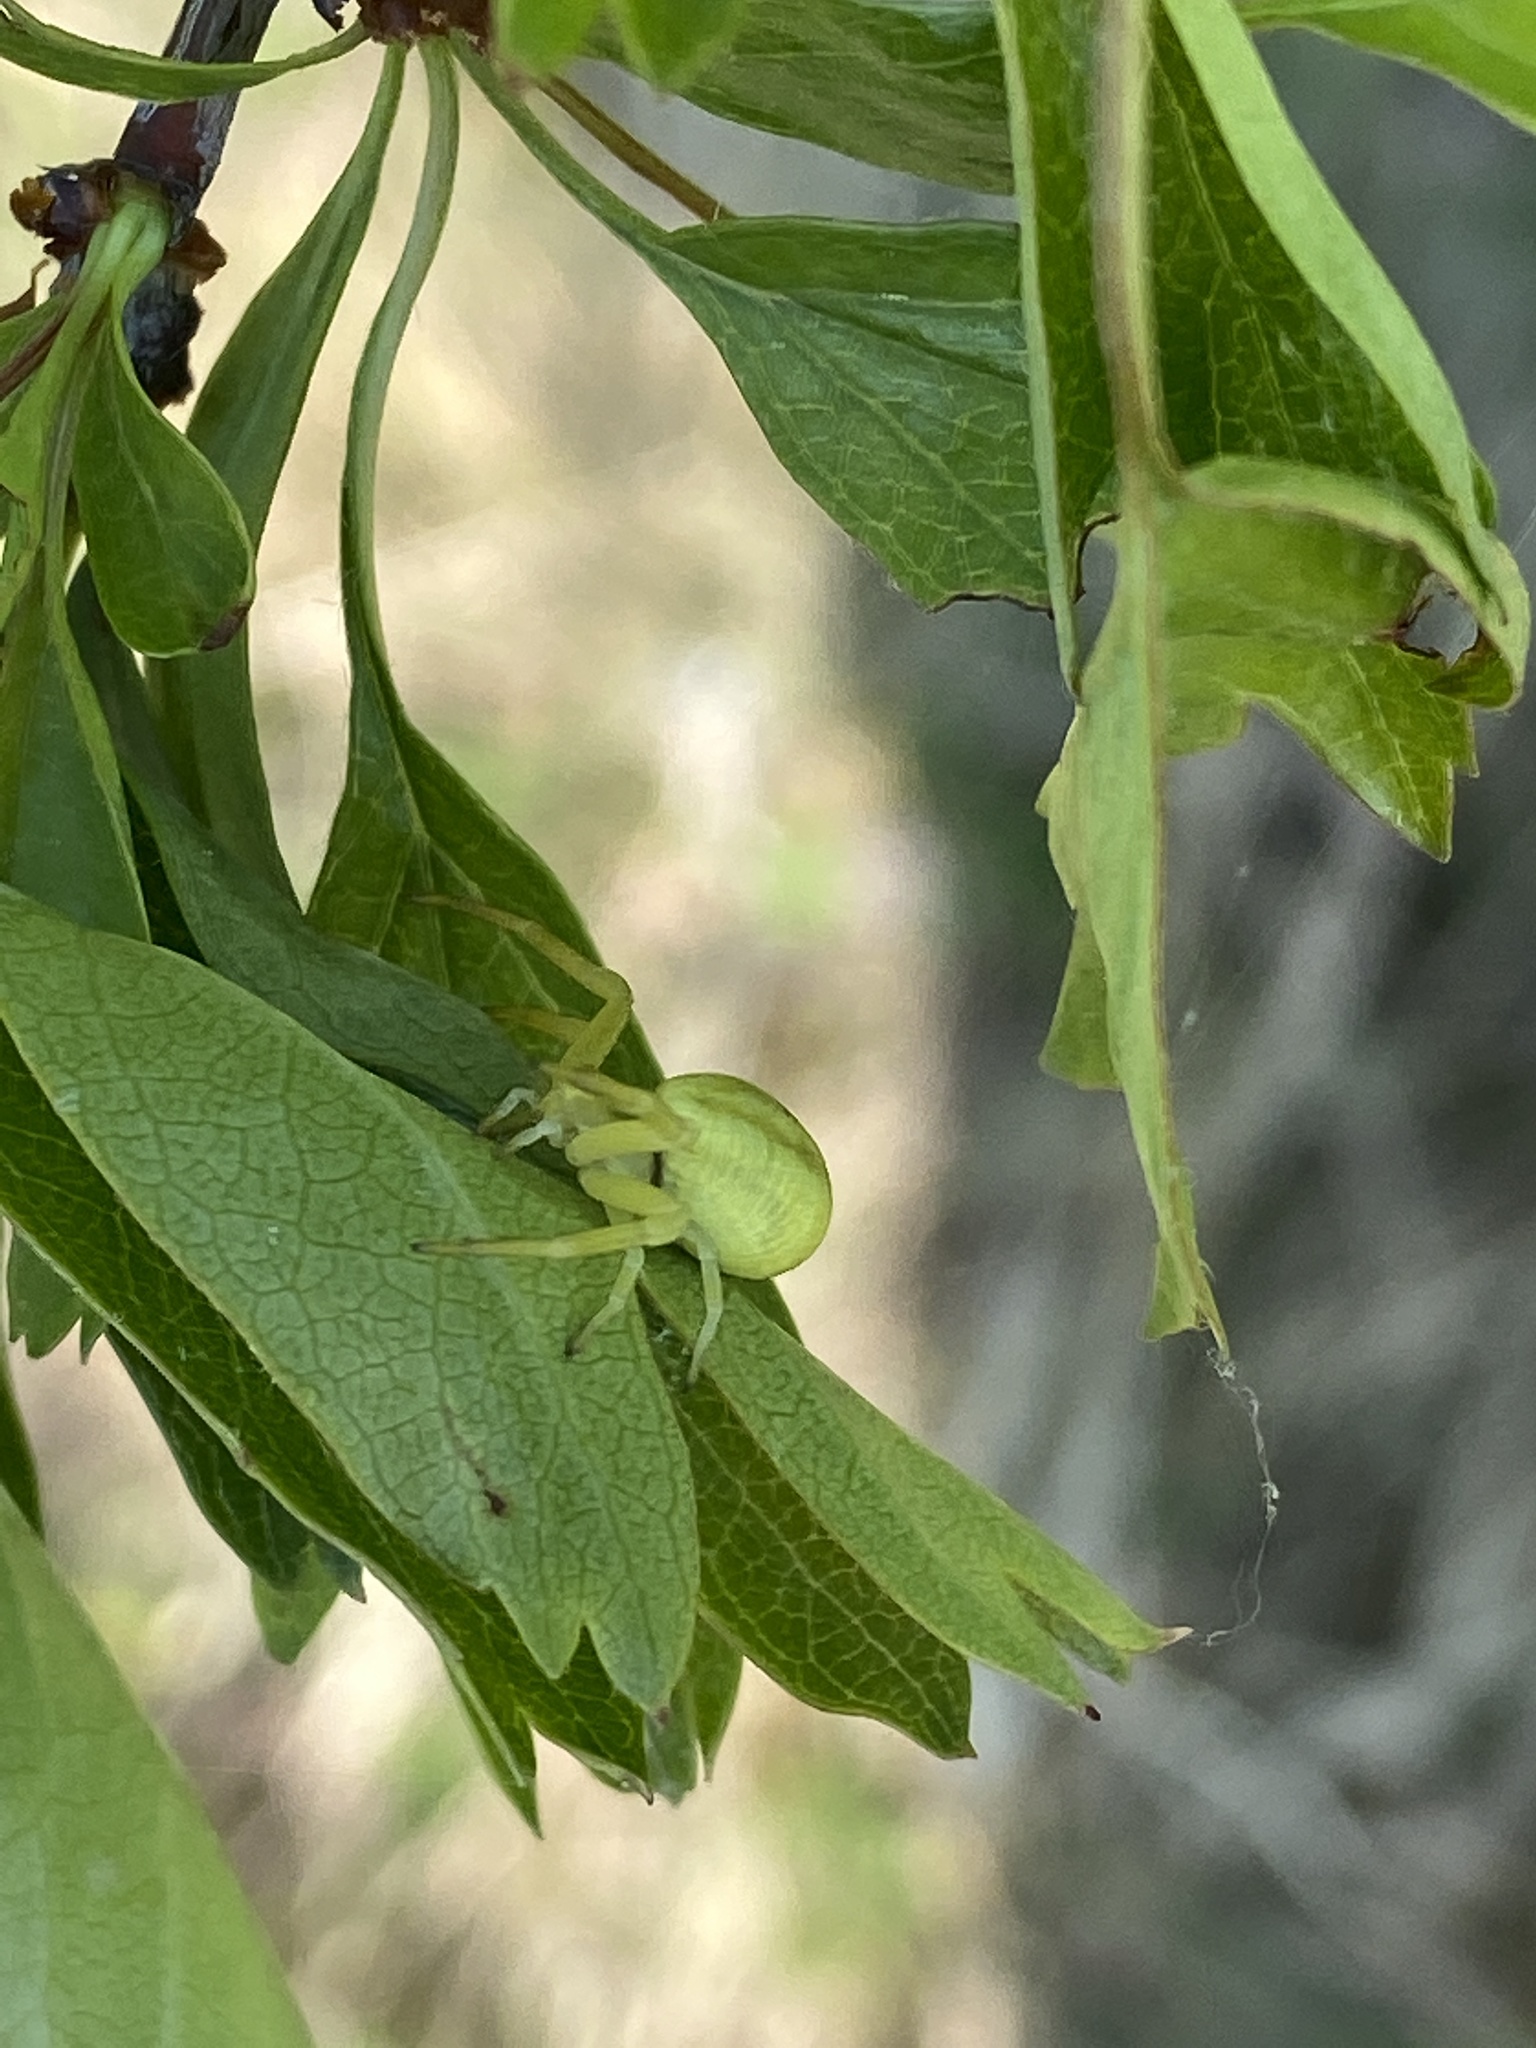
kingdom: Animalia
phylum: Arthropoda
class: Arachnida
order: Araneae
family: Thomisidae
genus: Misumena
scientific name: Misumena vatia
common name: Goldenrod crab spider
